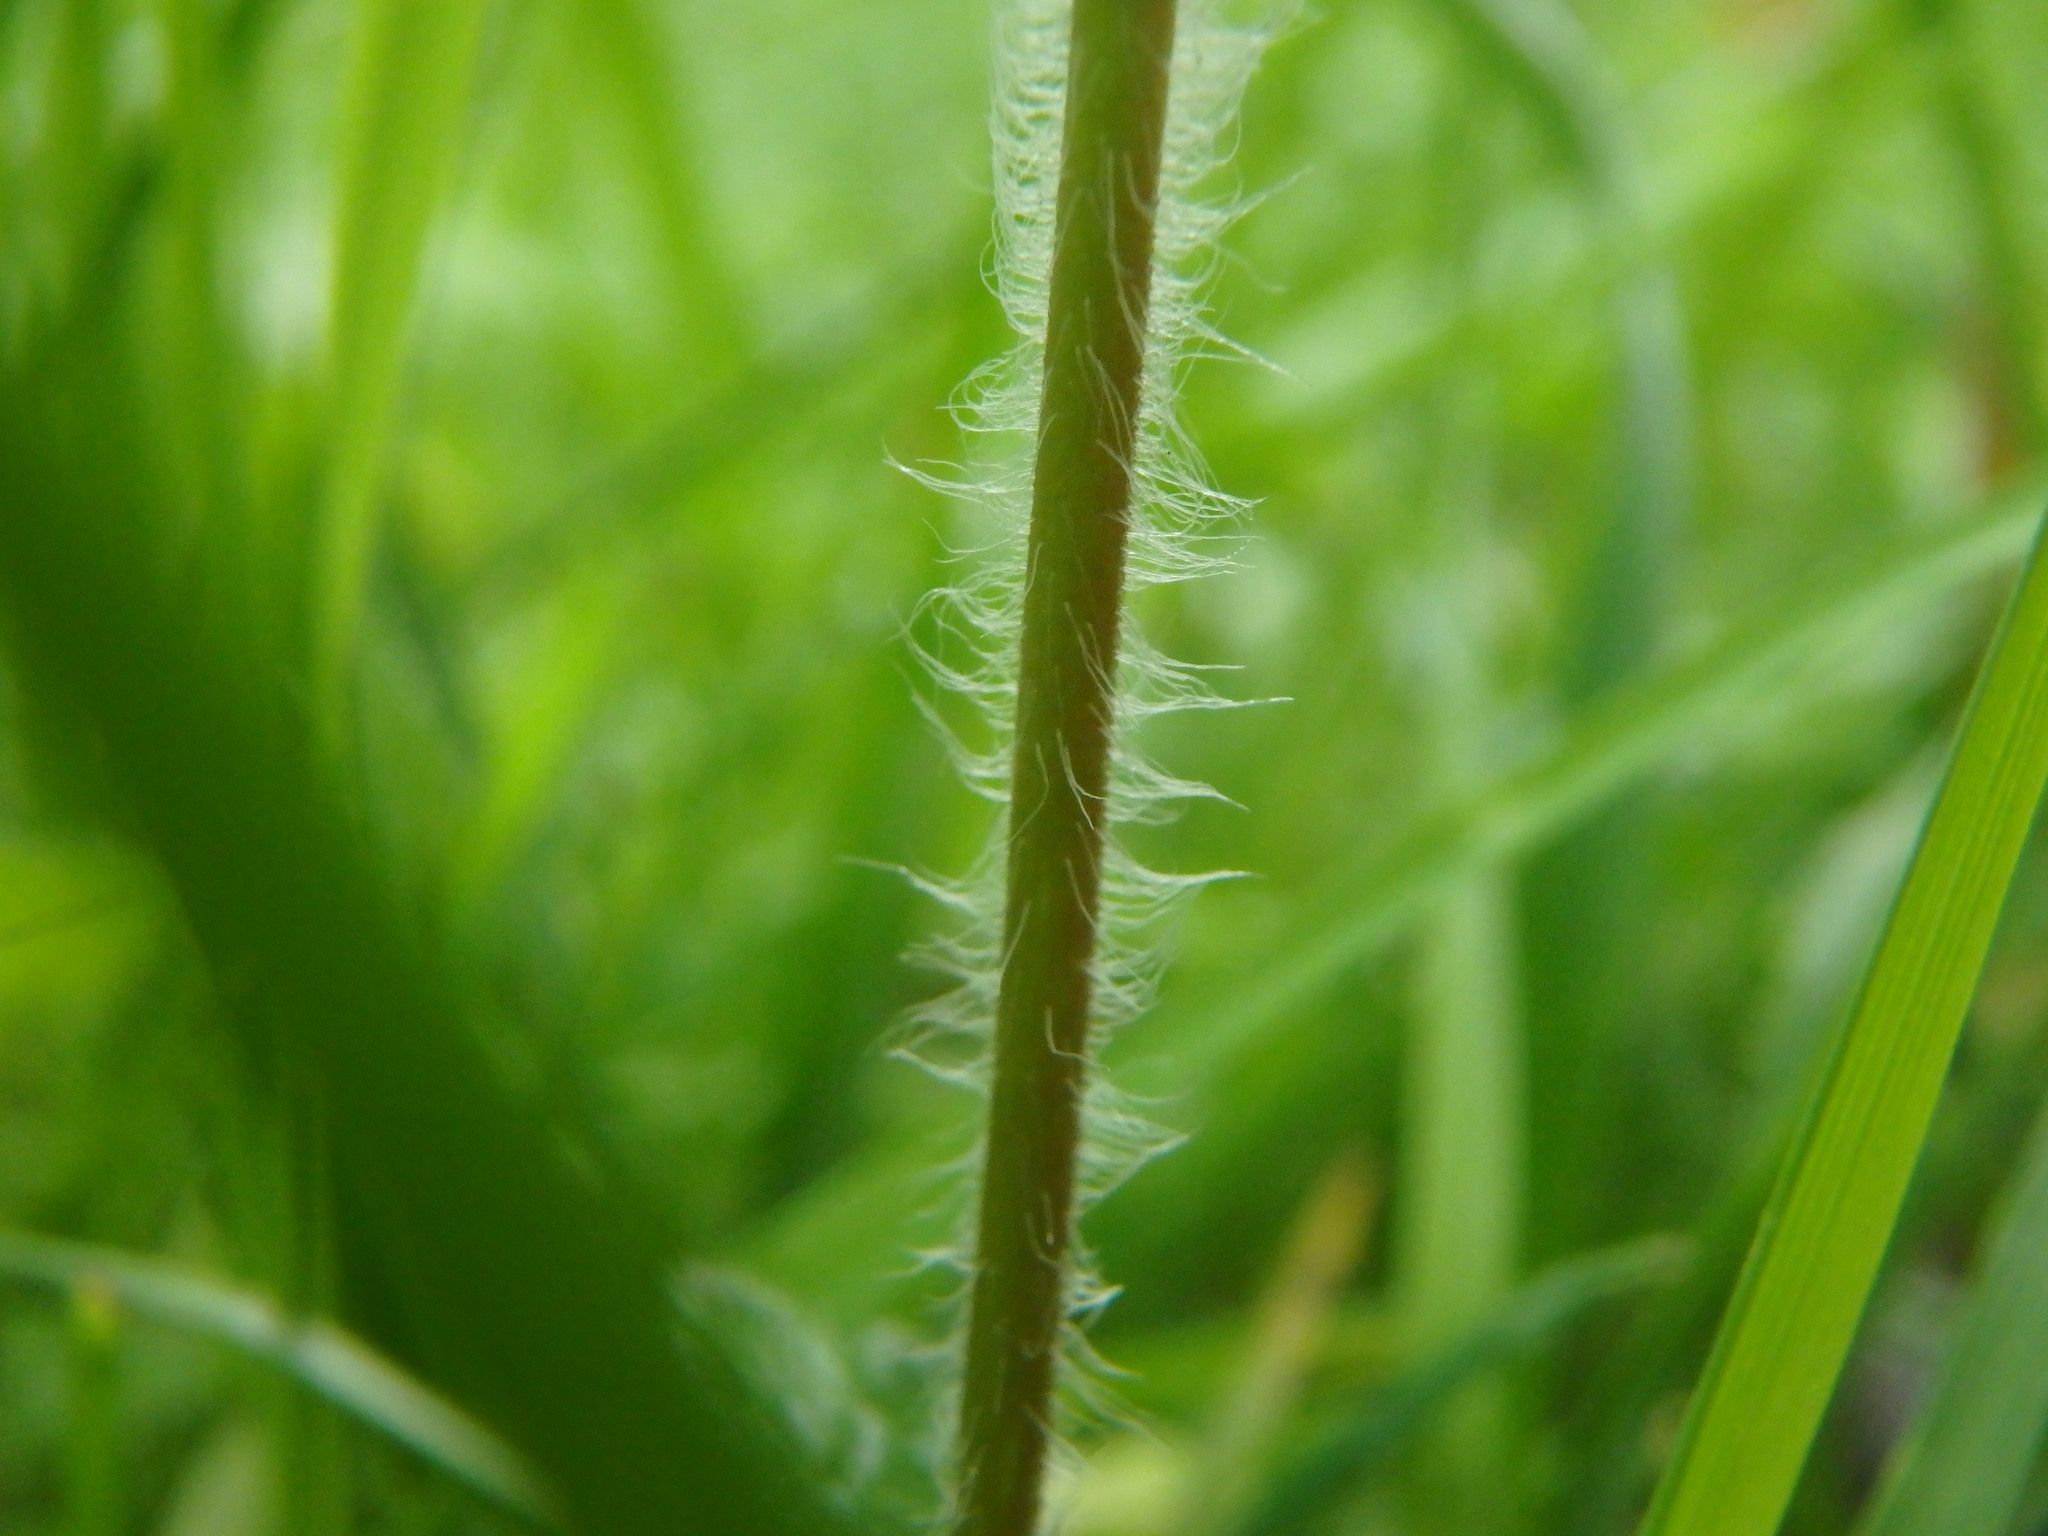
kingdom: Plantae
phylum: Tracheophyta
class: Magnoliopsida
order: Lamiales
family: Plantaginaceae
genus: Veronica
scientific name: Veronica chamaedrys
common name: Germander speedwell
